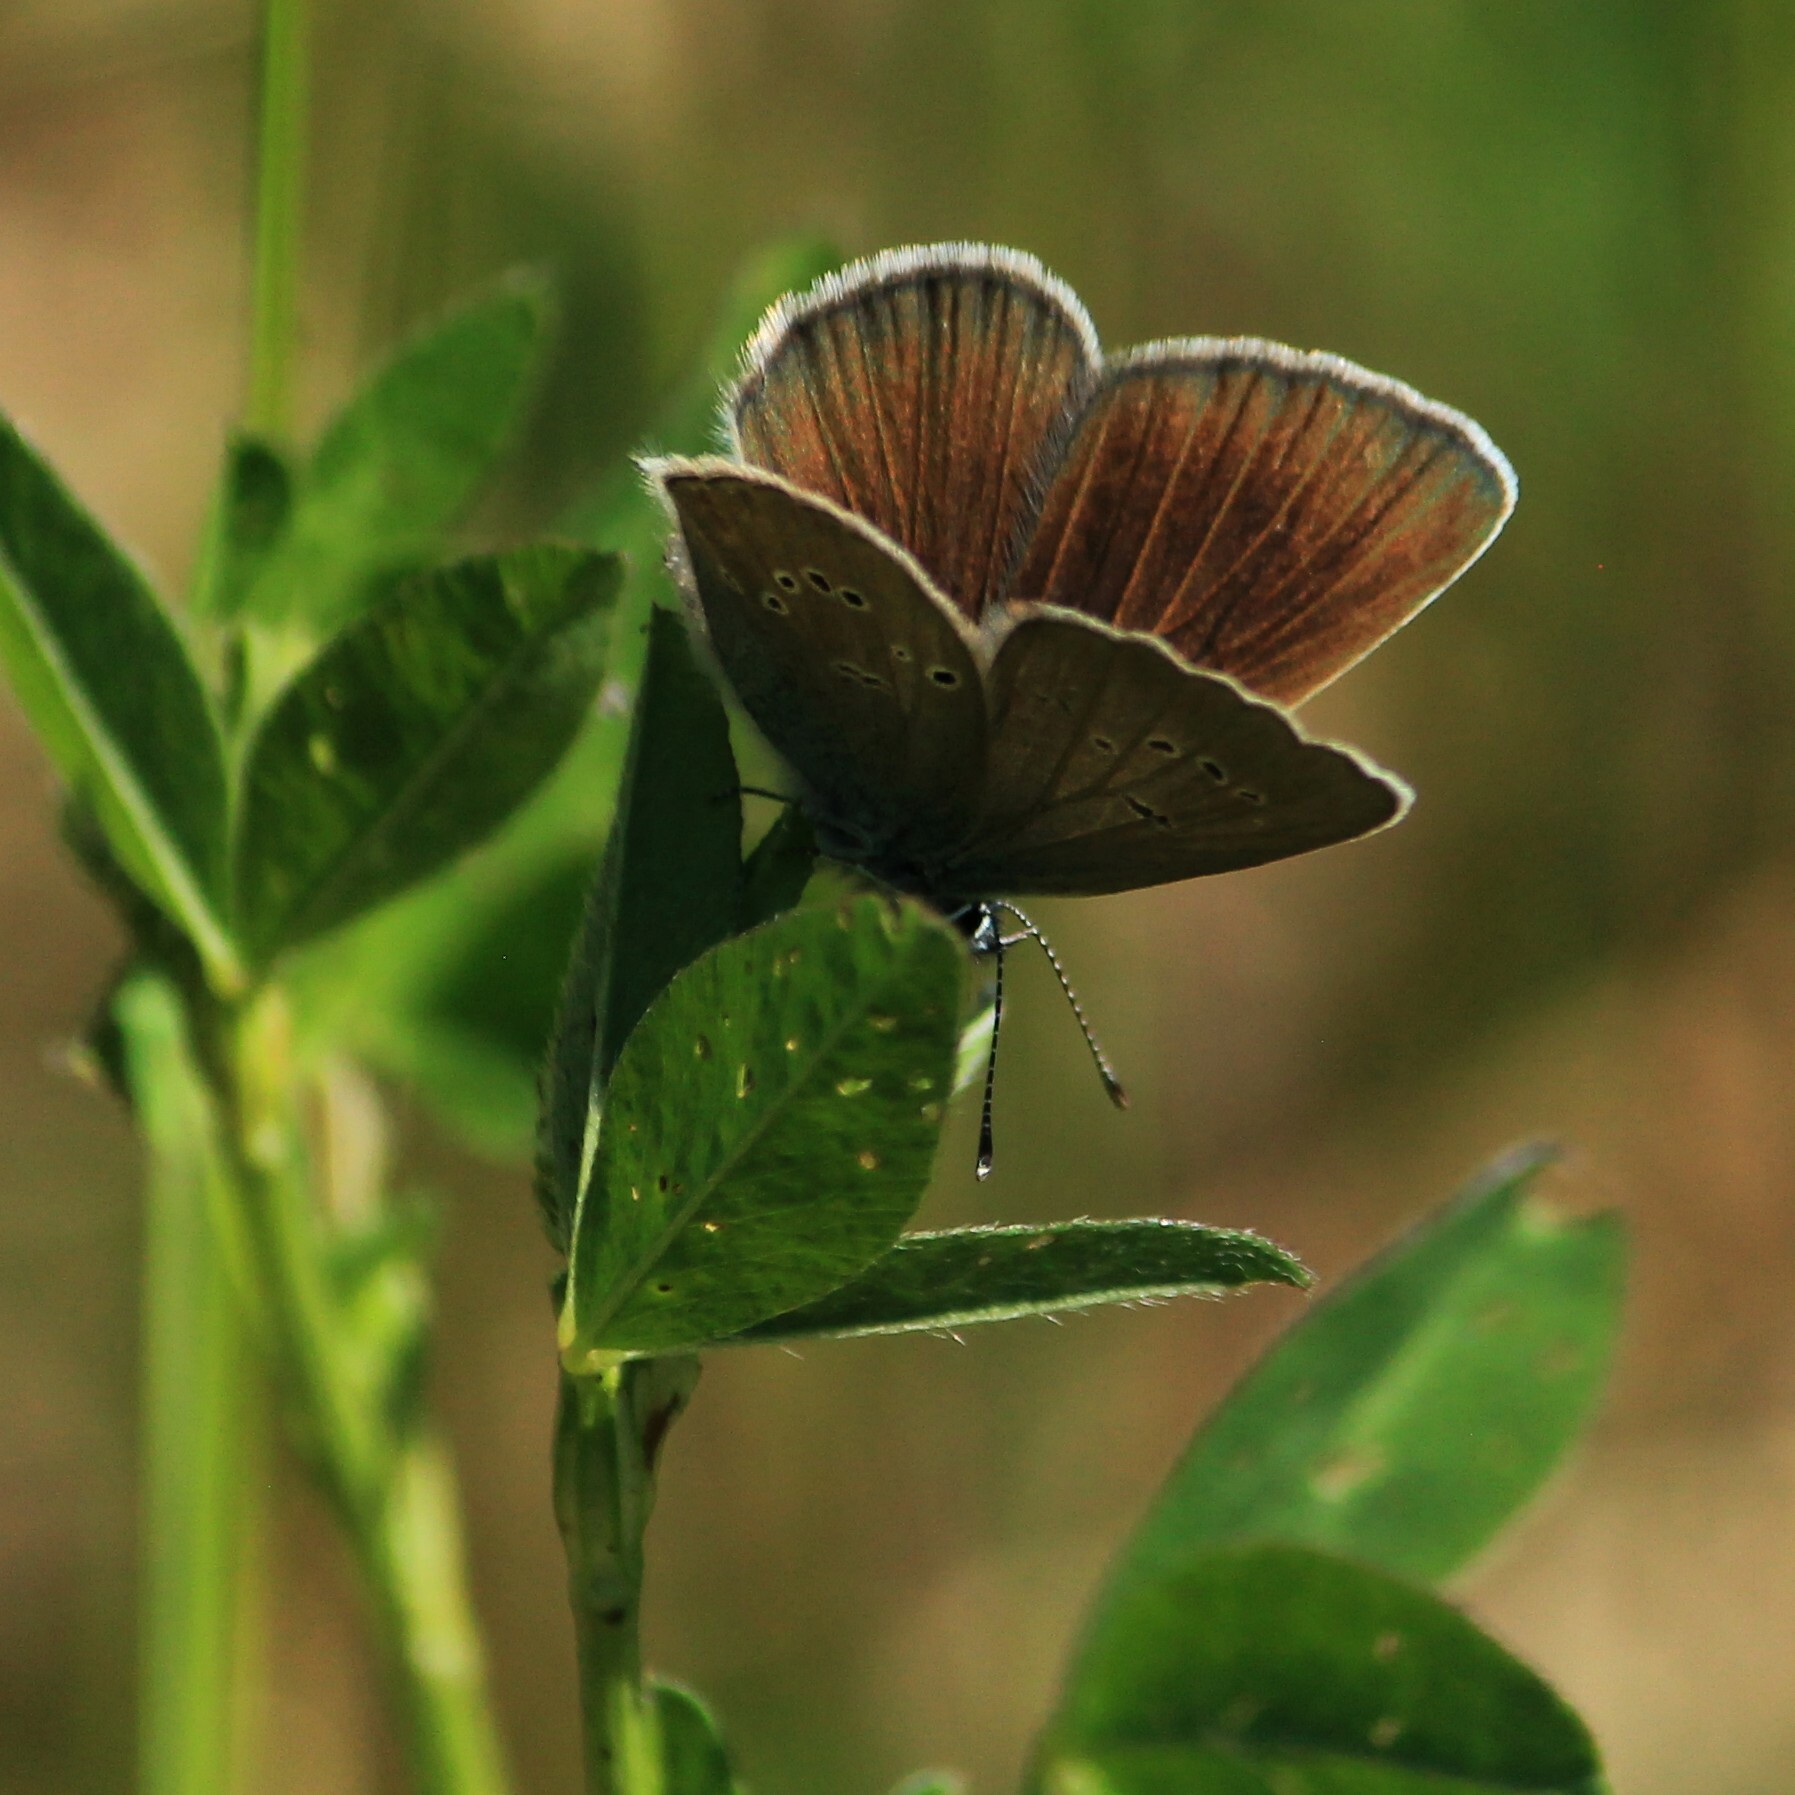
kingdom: Animalia
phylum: Arthropoda
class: Insecta
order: Lepidoptera
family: Lycaenidae
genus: Cyaniris
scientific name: Cyaniris semiargus
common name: Mazarine blue
